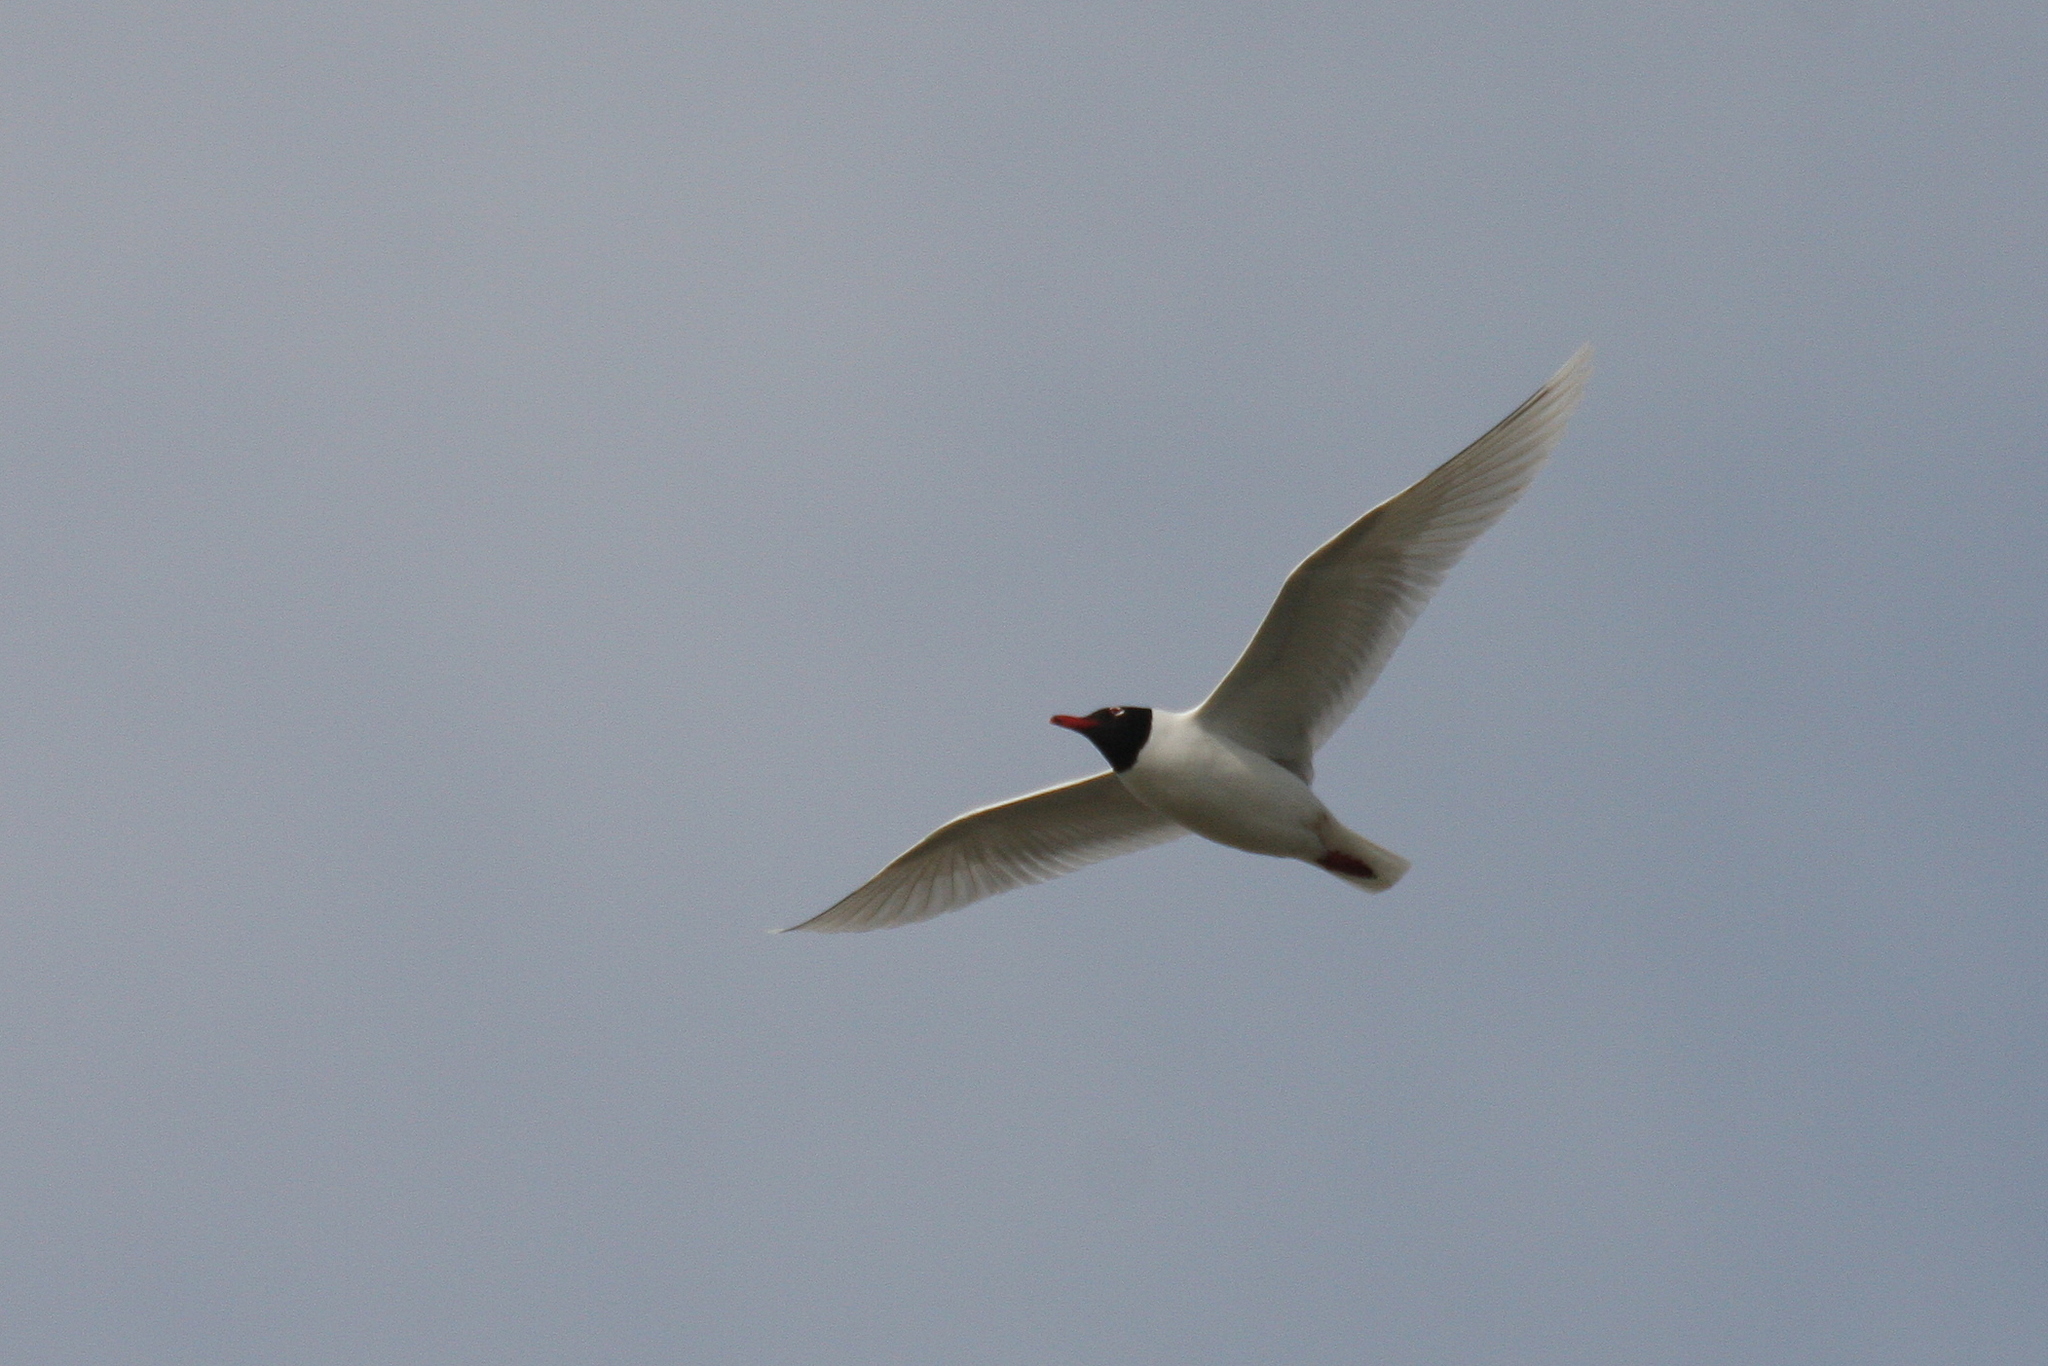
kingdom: Animalia
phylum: Chordata
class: Aves
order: Charadriiformes
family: Laridae
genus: Ichthyaetus
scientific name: Ichthyaetus melanocephalus
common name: Mediterranean gull
